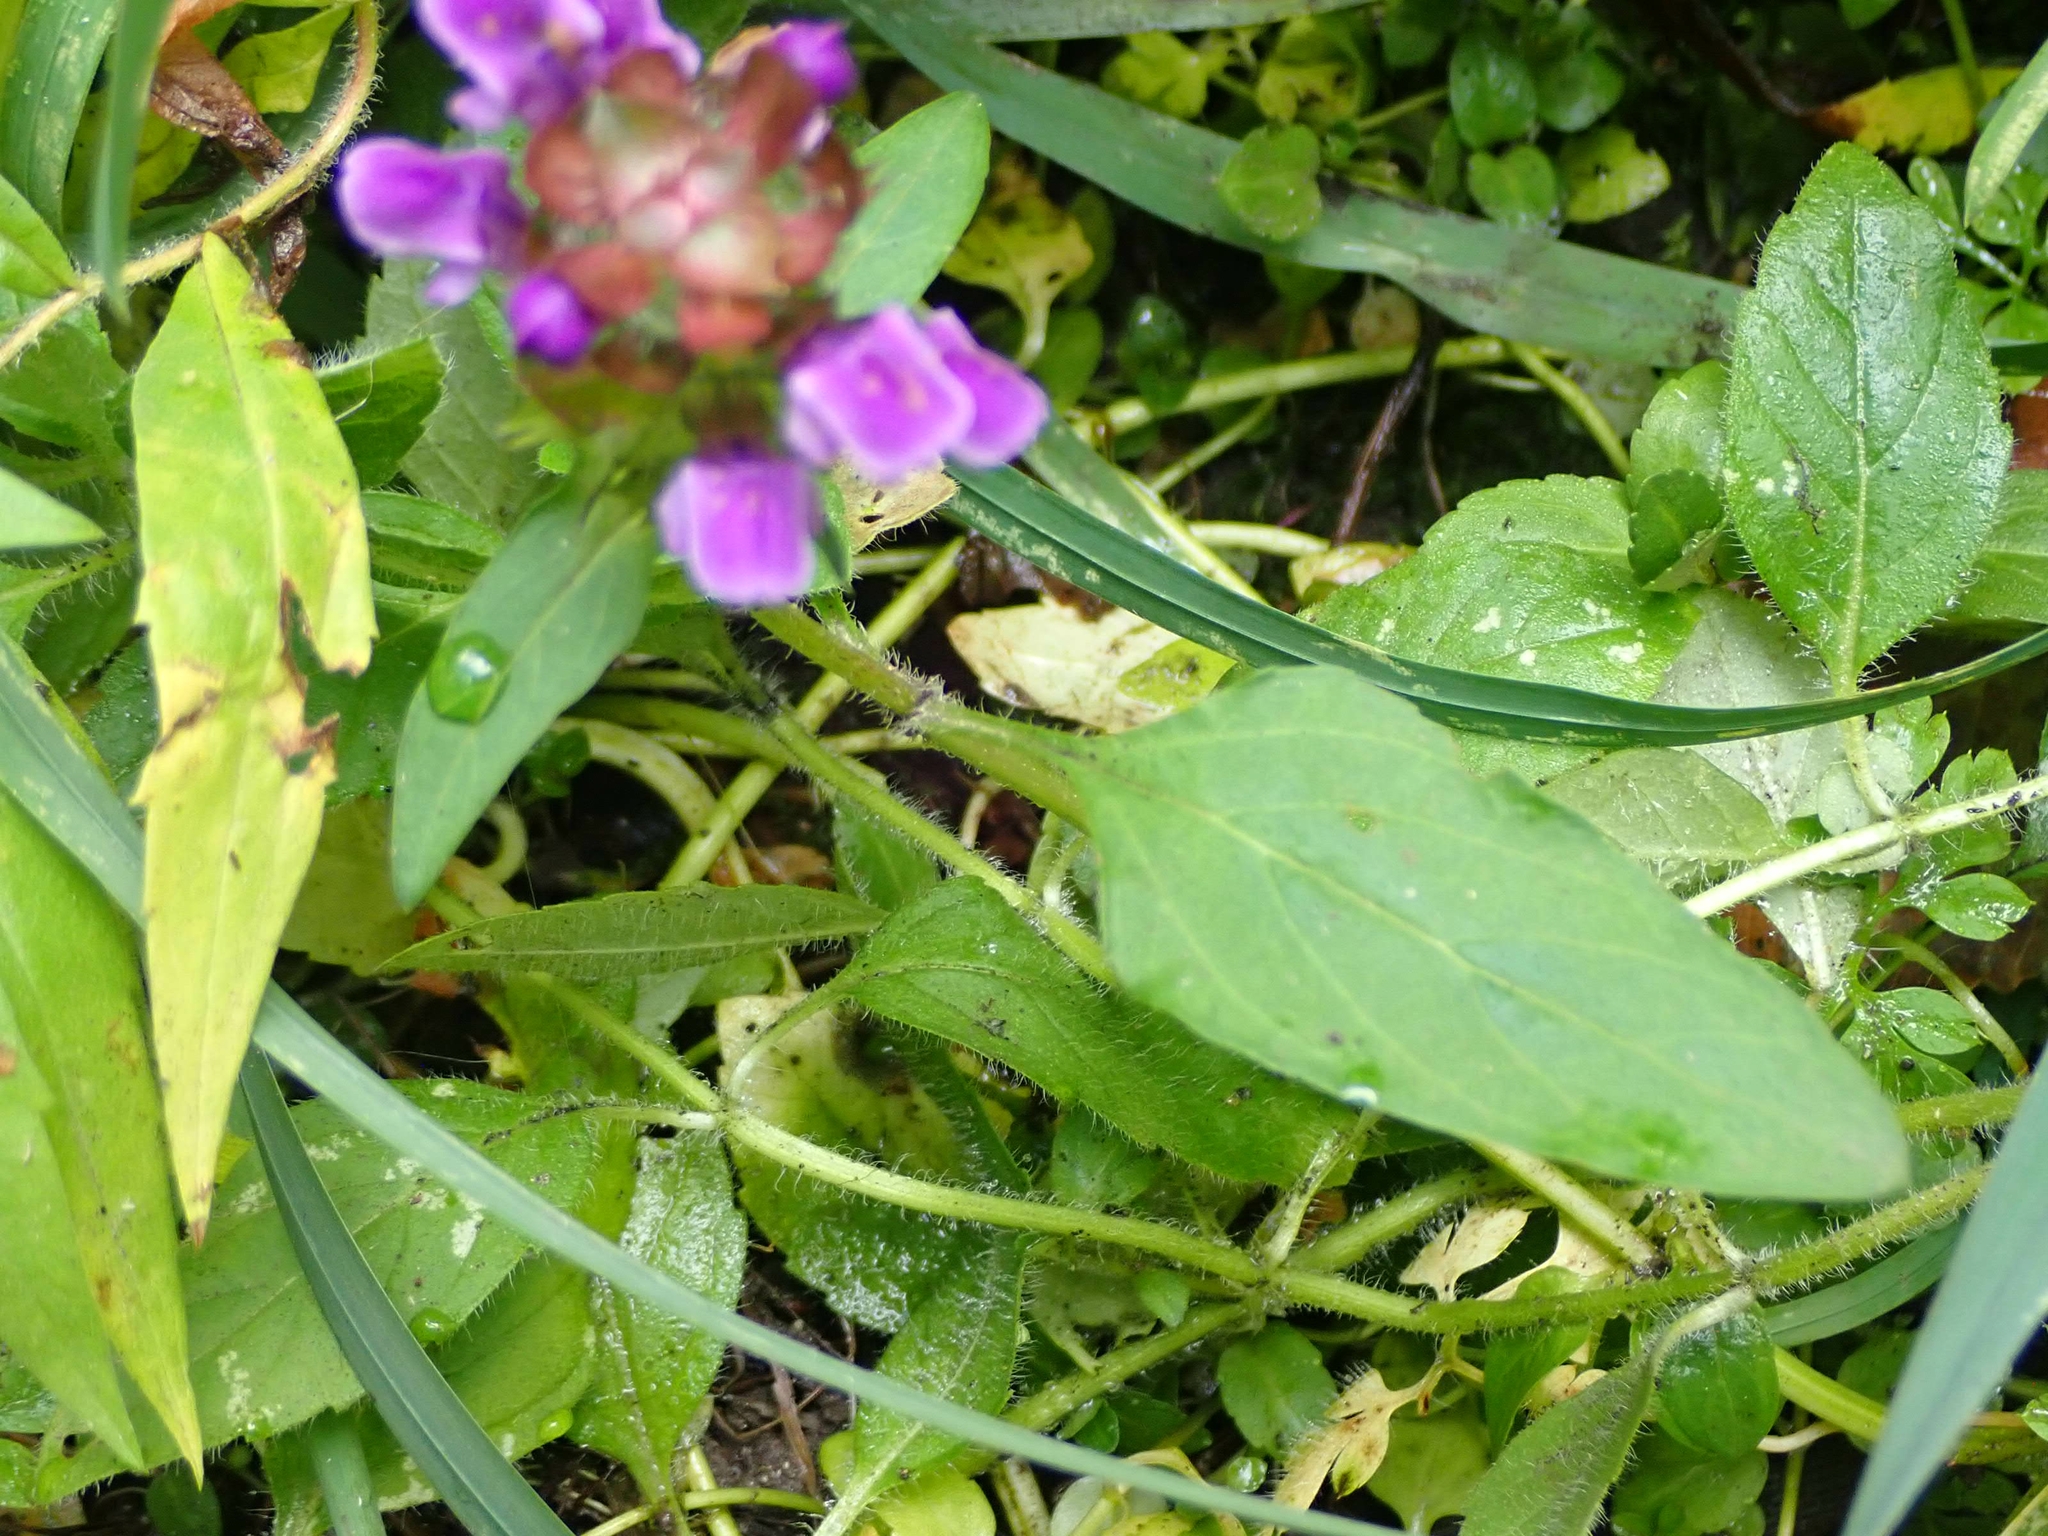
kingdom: Plantae
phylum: Tracheophyta
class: Magnoliopsida
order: Lamiales
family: Lamiaceae
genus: Prunella
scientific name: Prunella vulgaris
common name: Heal-all
